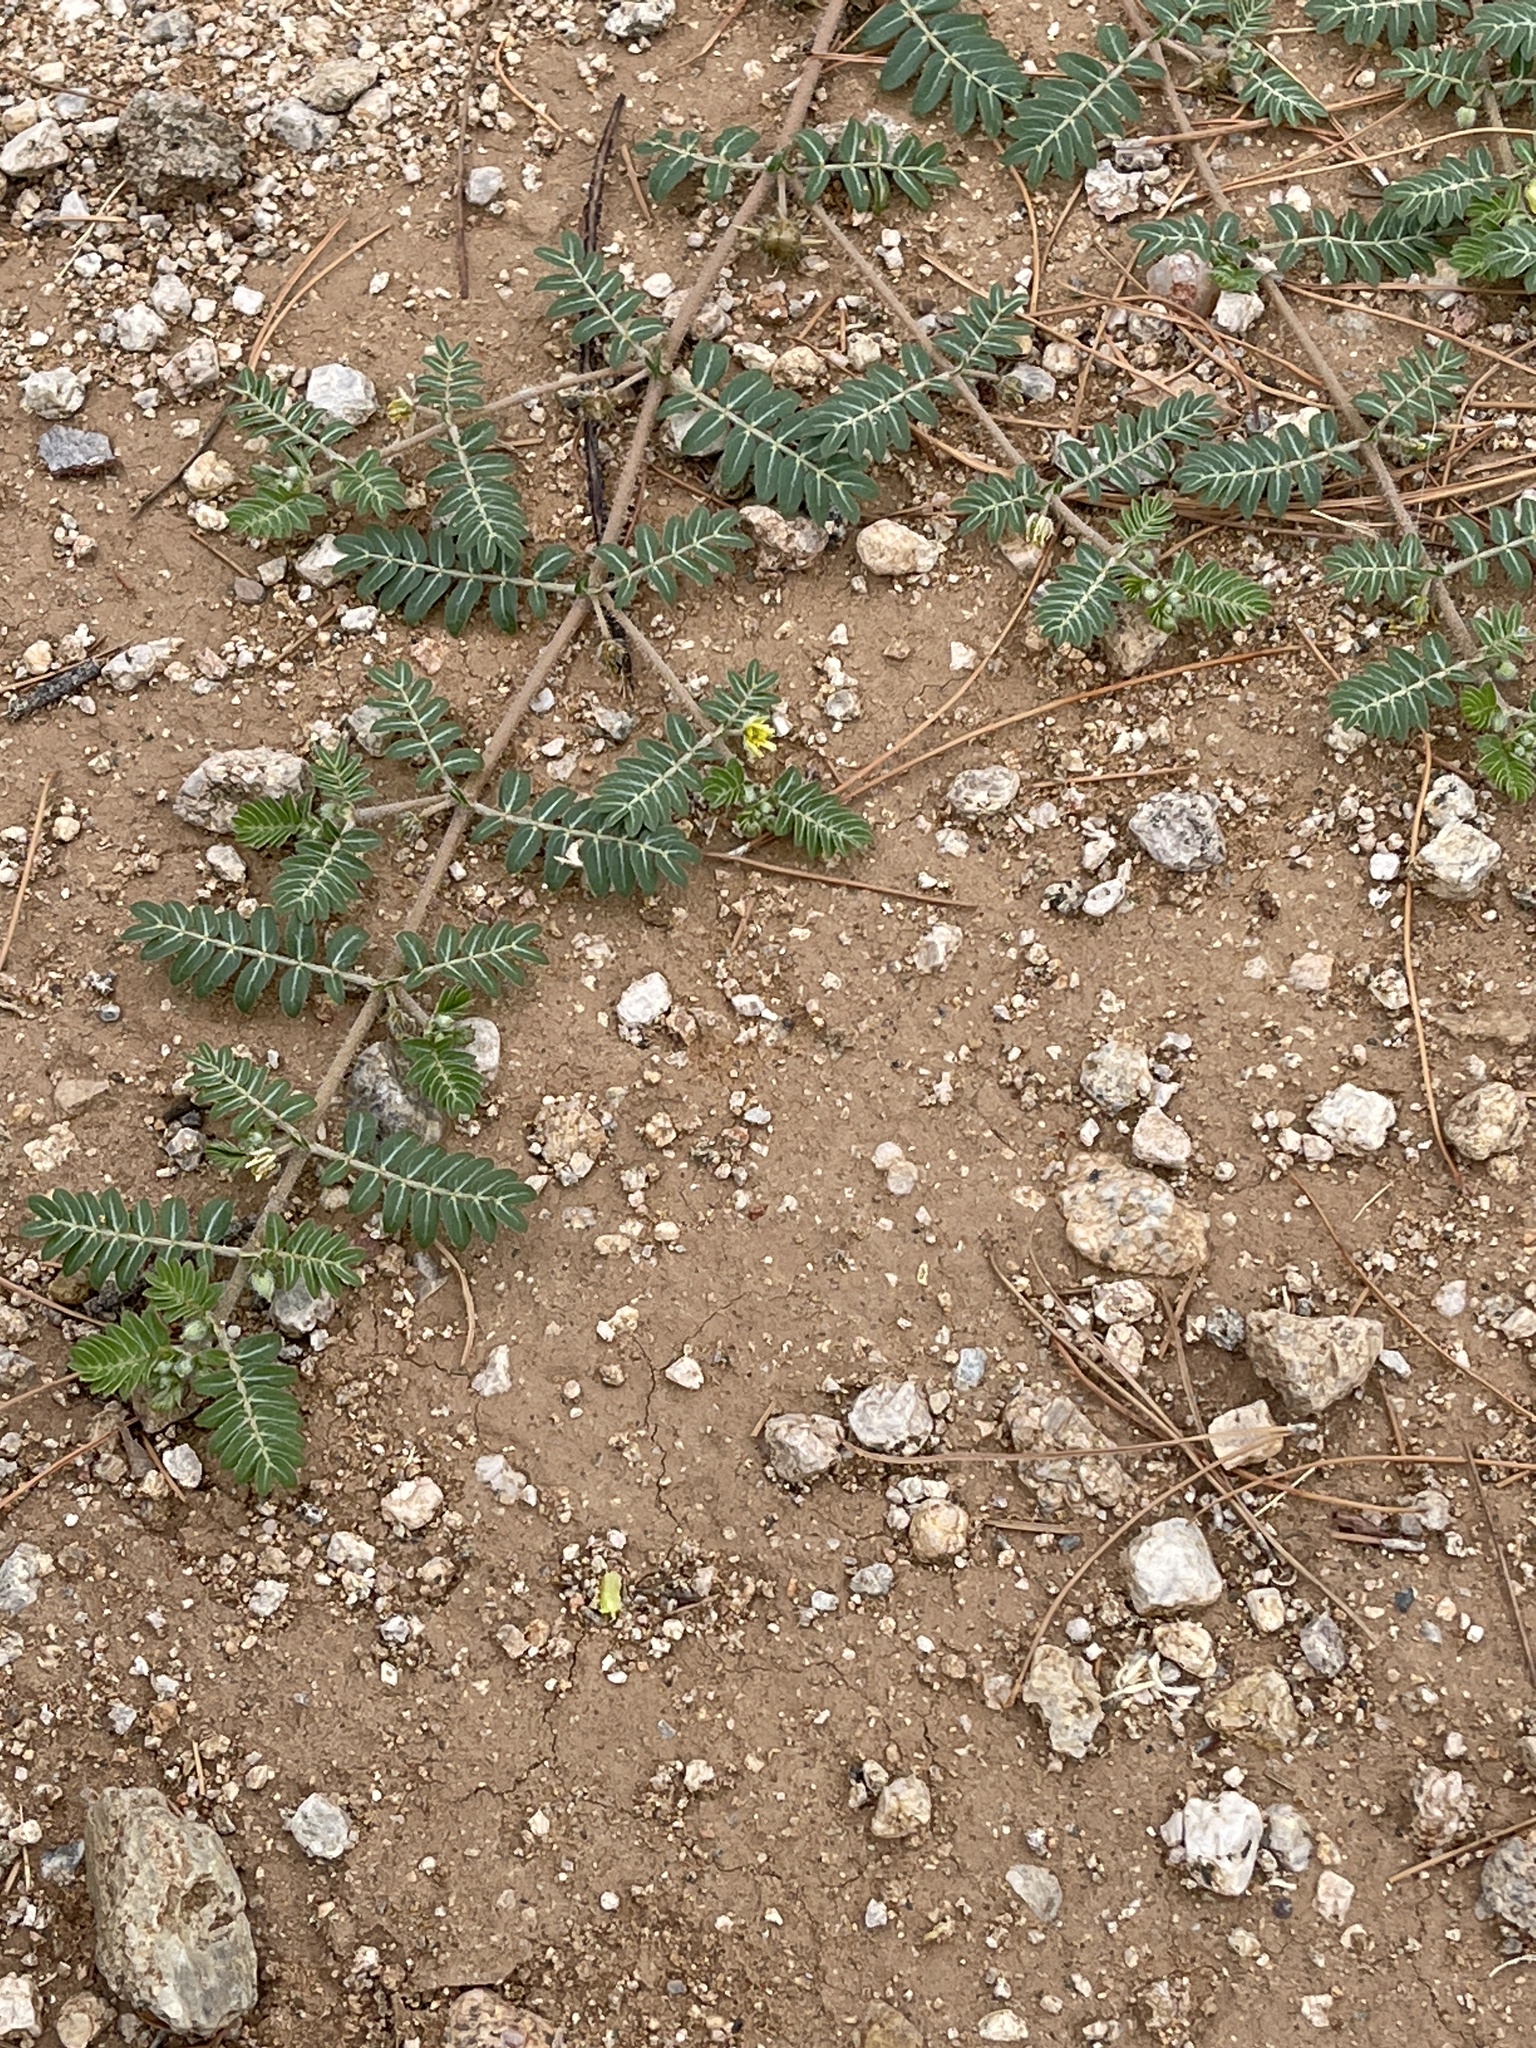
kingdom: Plantae
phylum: Tracheophyta
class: Magnoliopsida
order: Zygophyllales
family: Zygophyllaceae
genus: Tribulus
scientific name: Tribulus terrestris
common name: Puncturevine
